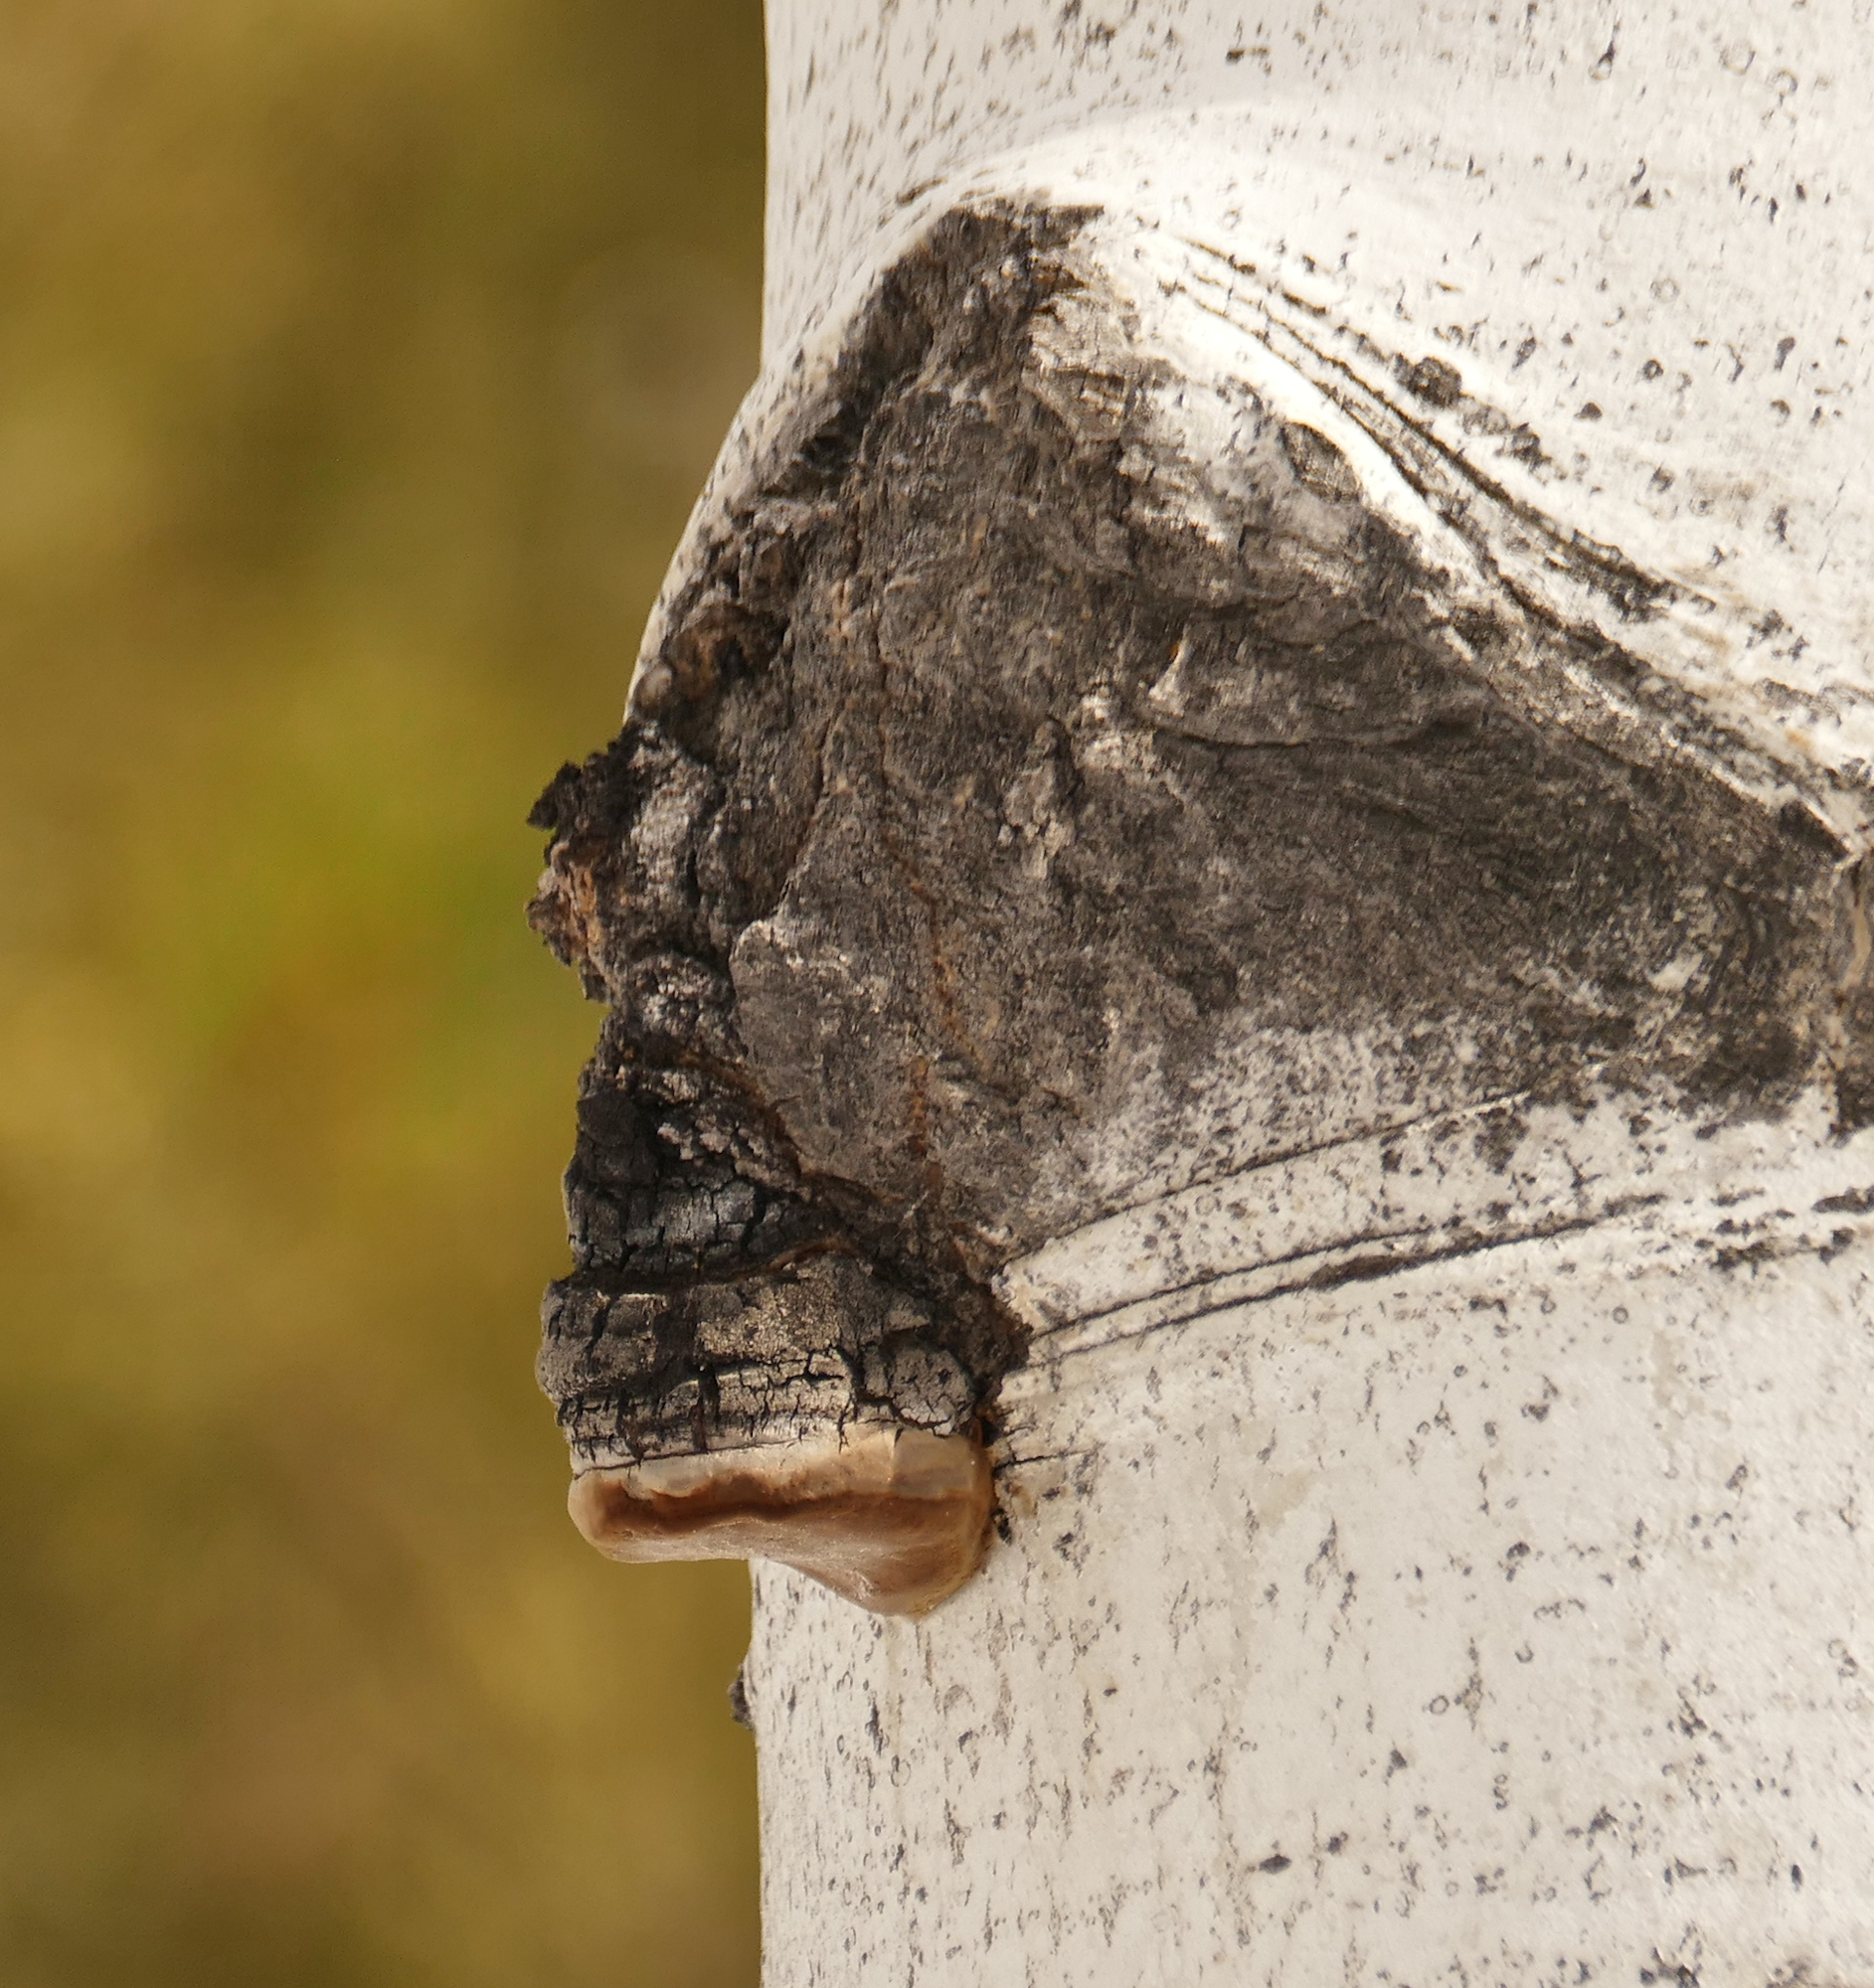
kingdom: Fungi
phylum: Basidiomycota
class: Agaricomycetes
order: Hymenochaetales
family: Hymenochaetaceae
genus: Phellinus
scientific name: Phellinus tremulae
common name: Aspen bracket
